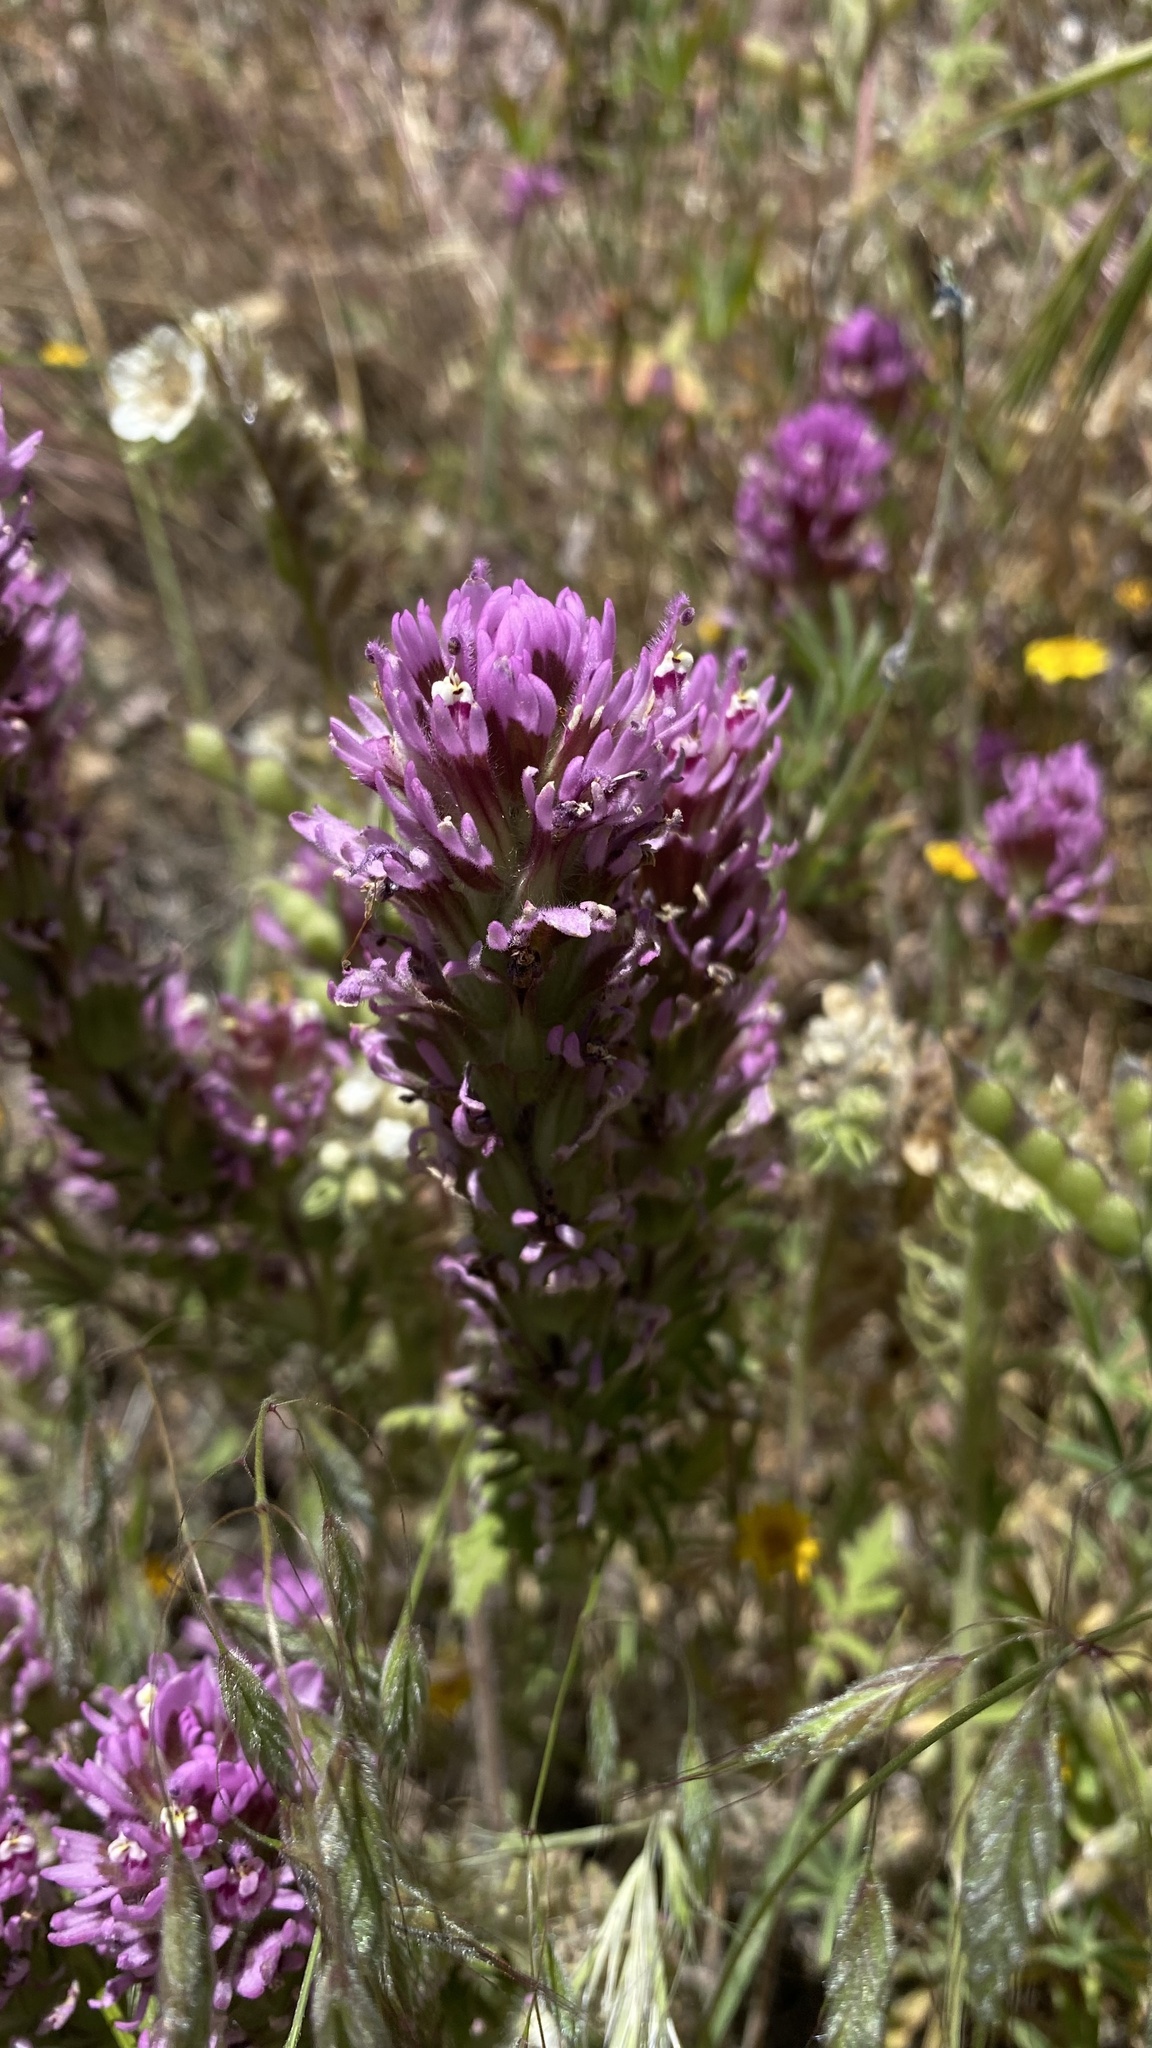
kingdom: Plantae
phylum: Tracheophyta
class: Magnoliopsida
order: Lamiales
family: Orobanchaceae
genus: Castilleja
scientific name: Castilleja exserta
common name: Purple owl-clover
